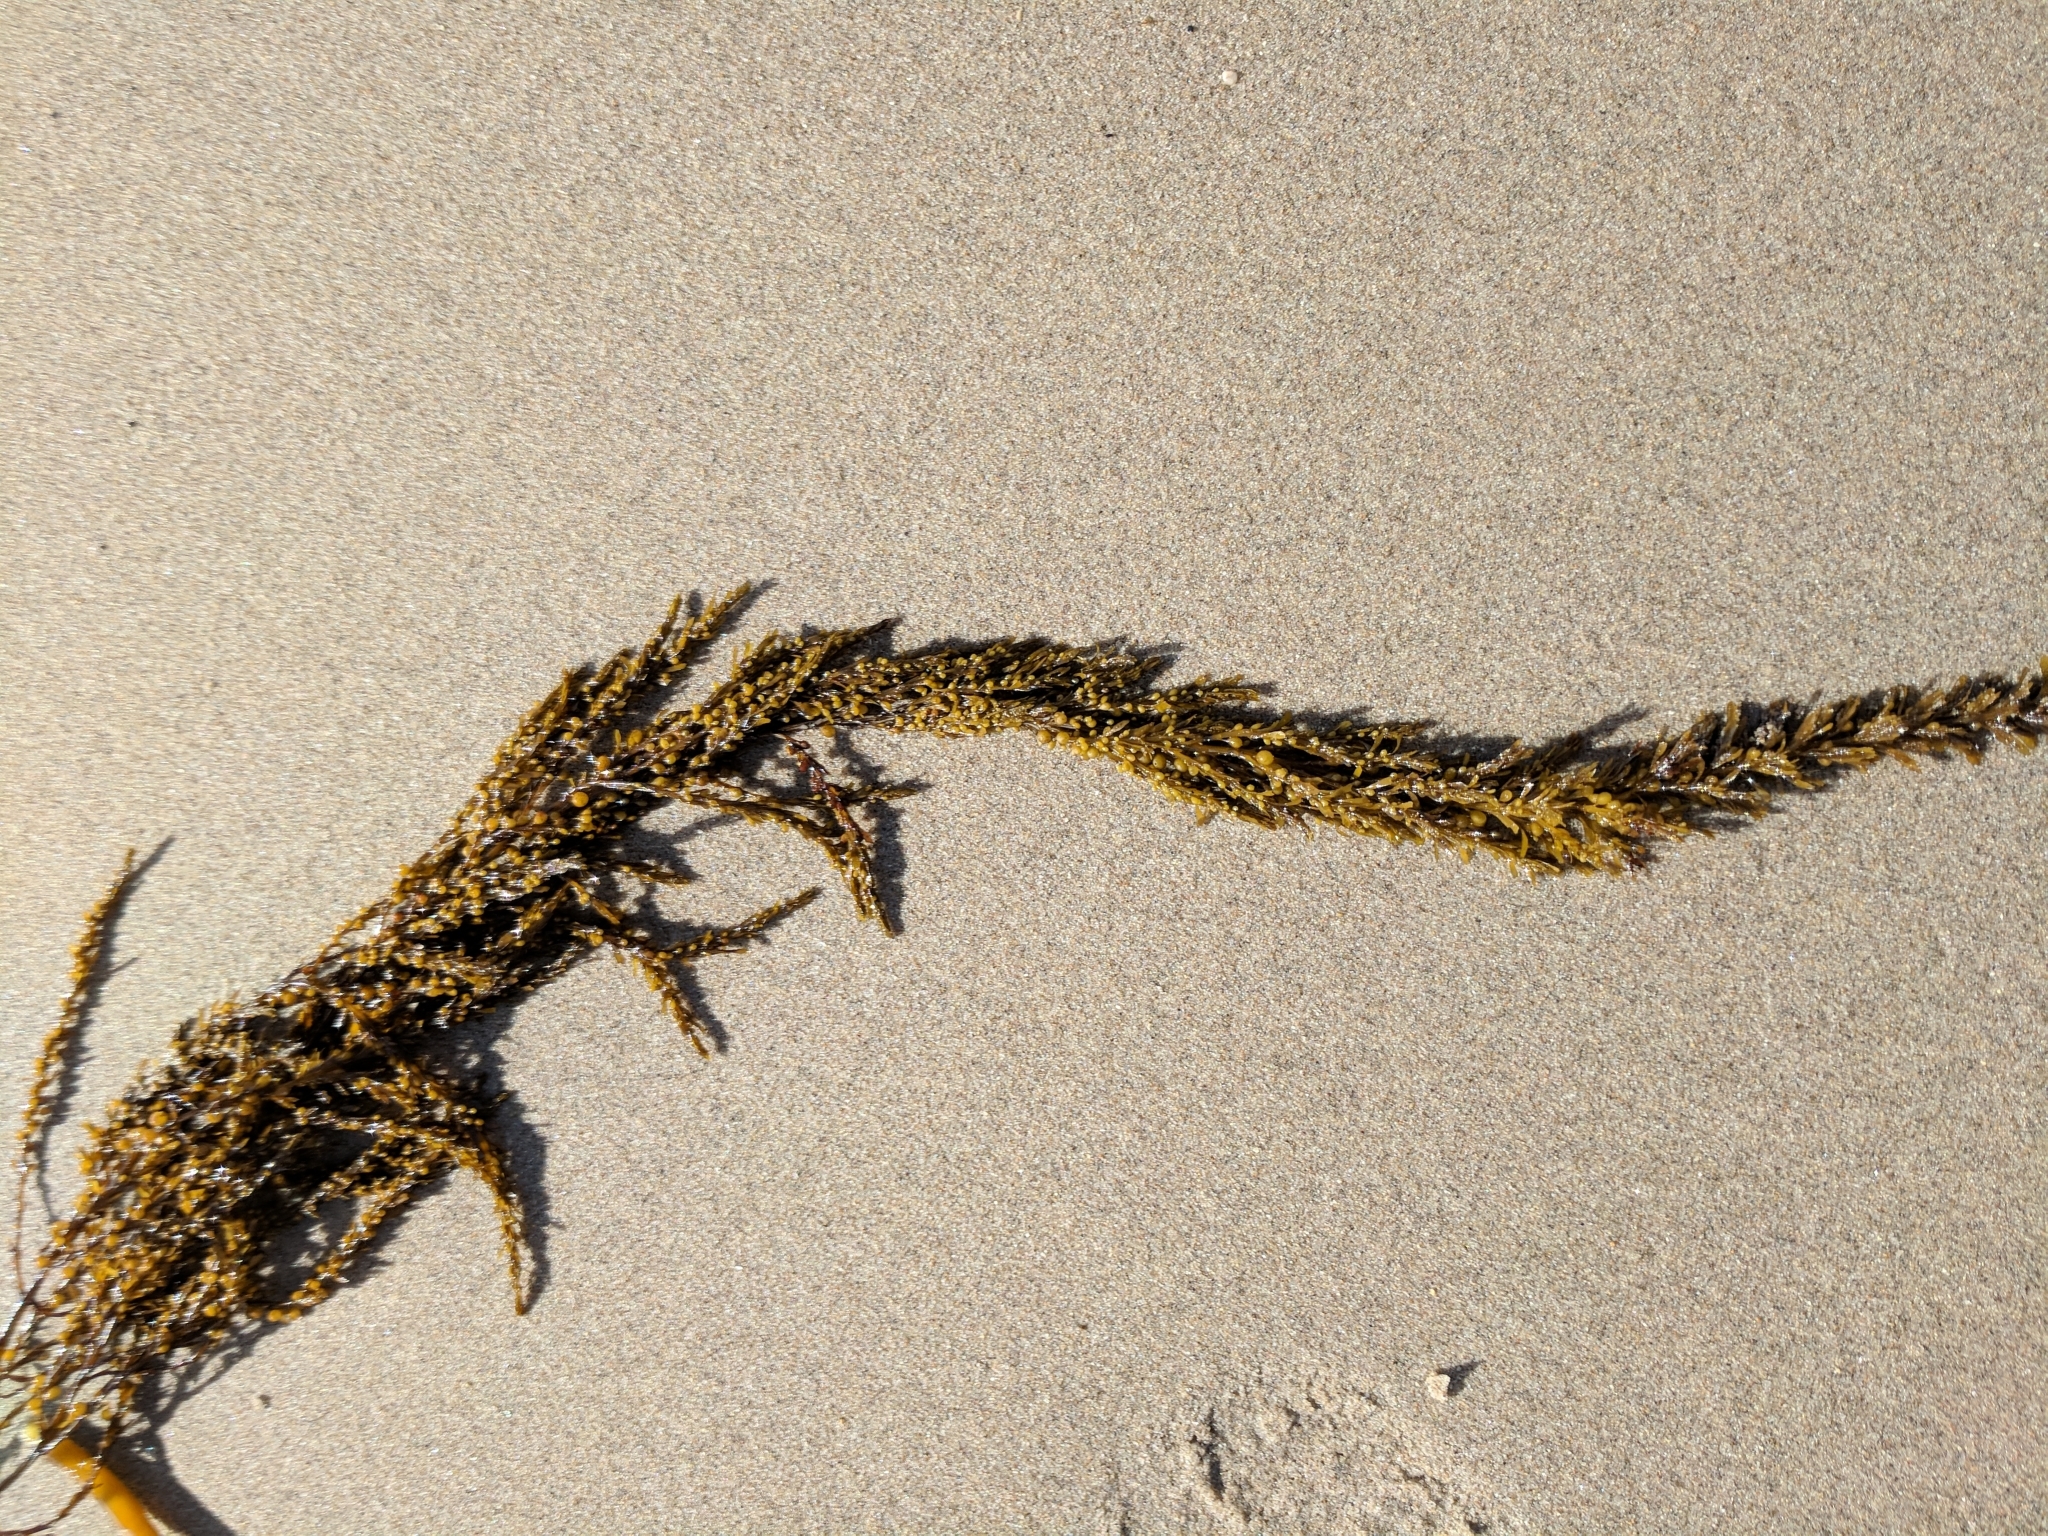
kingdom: Chromista
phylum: Ochrophyta
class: Phaeophyceae
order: Fucales
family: Sargassaceae
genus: Sargassum
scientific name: Sargassum muticum
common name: Japweed
